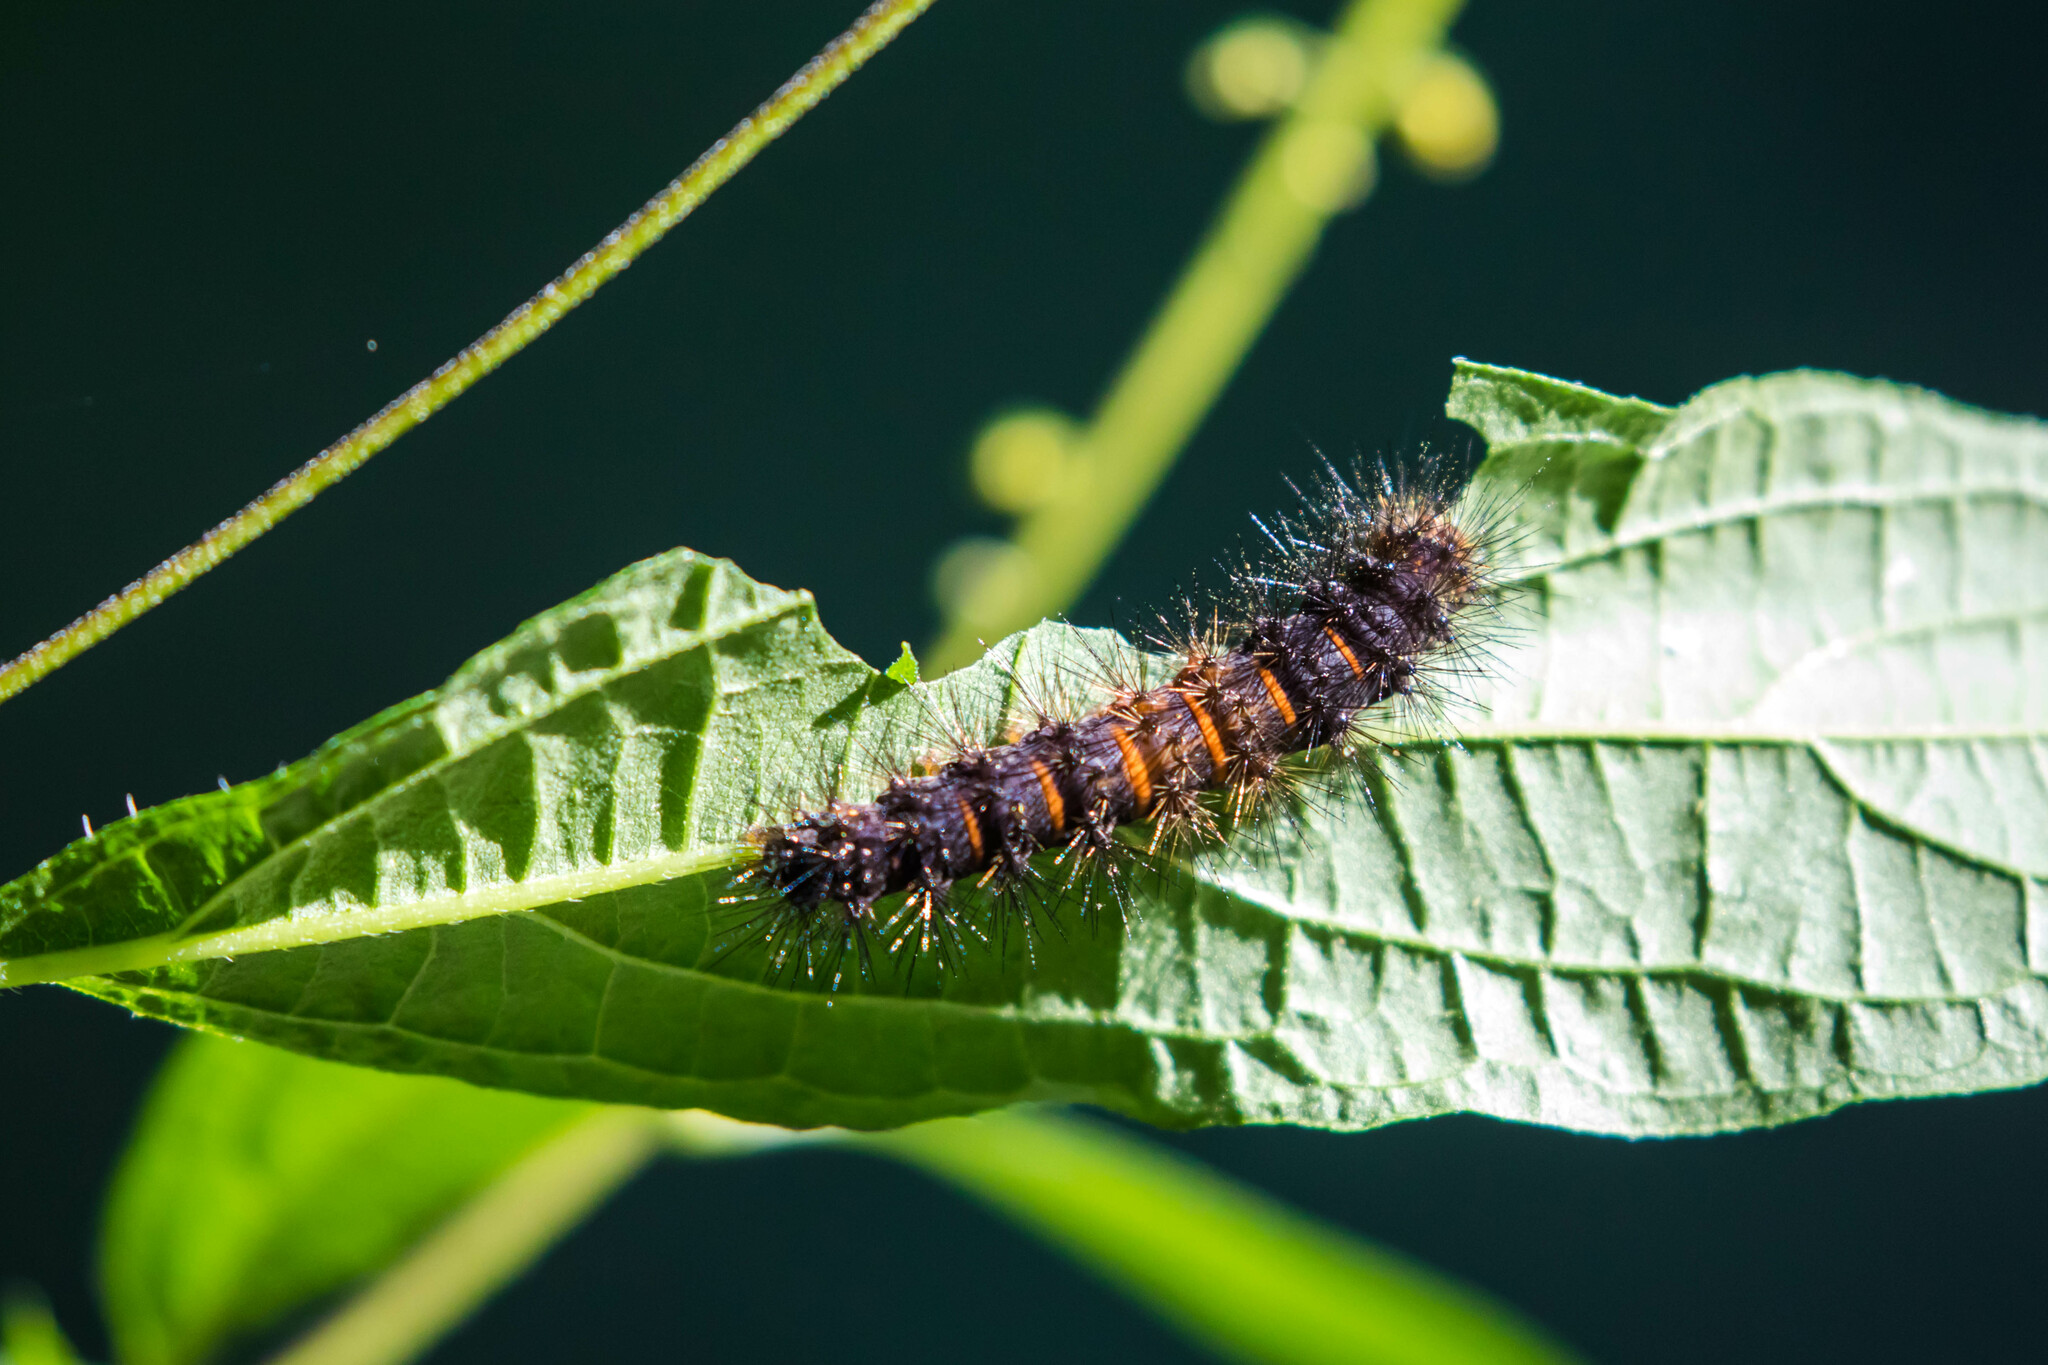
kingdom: Animalia
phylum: Arthropoda
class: Insecta
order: Lepidoptera
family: Erebidae
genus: Hypercompe
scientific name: Hypercompe scribonia
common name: Giant leopard moth
